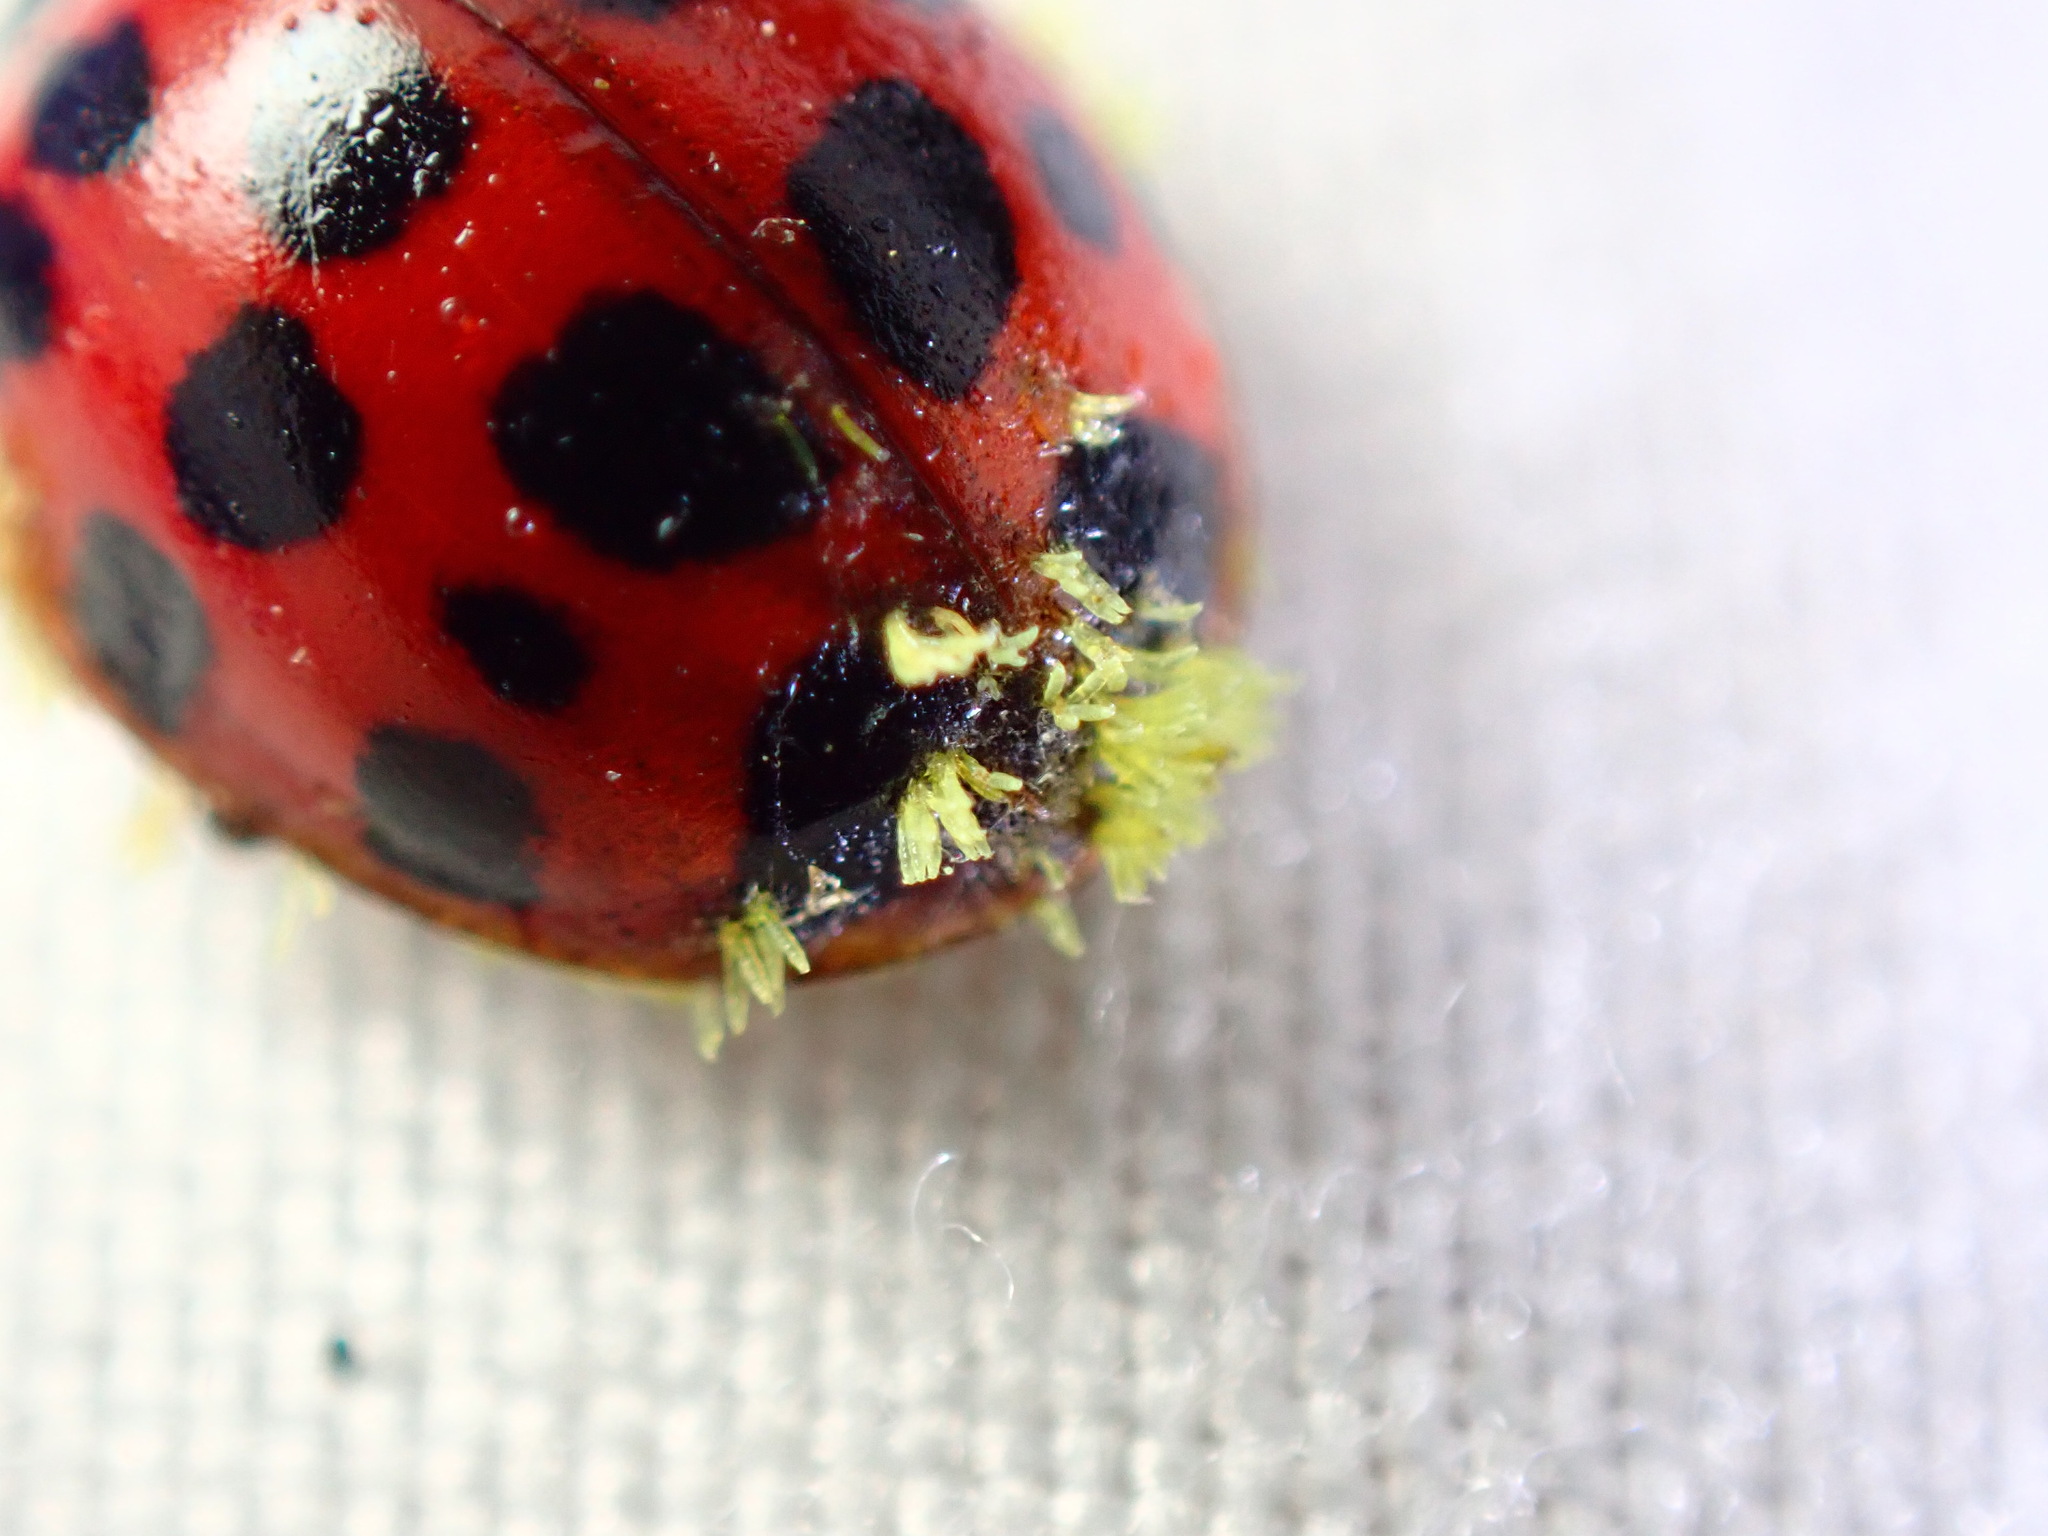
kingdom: Fungi
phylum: Ascomycota
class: Laboulbeniomycetes
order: Laboulbeniales
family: Laboulbeniaceae
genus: Hesperomyces
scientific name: Hesperomyces harmoniae
